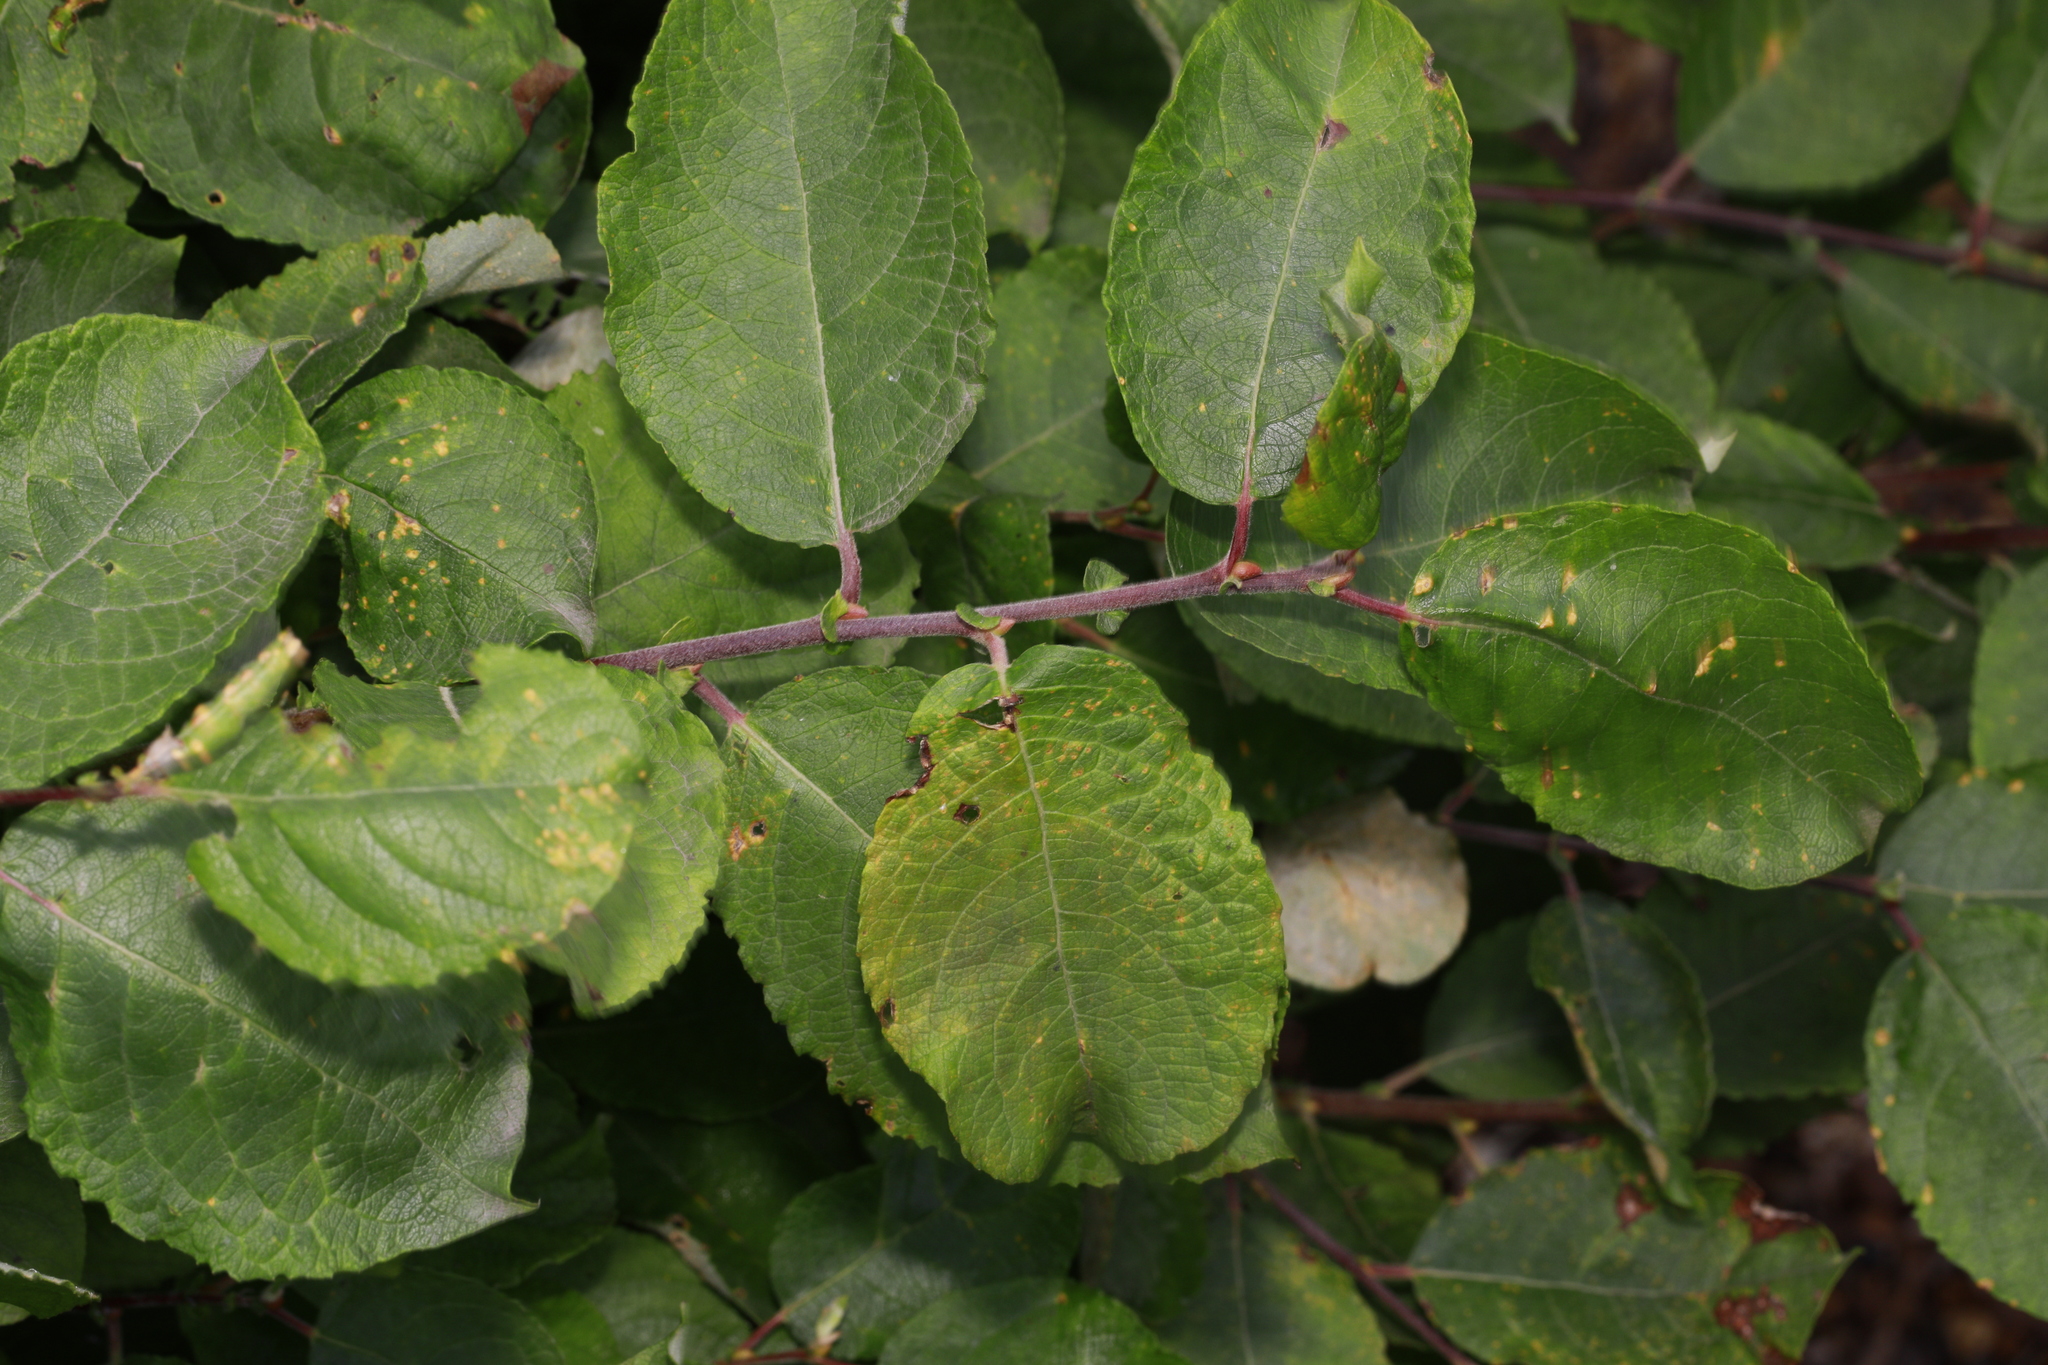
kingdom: Plantae
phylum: Tracheophyta
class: Magnoliopsida
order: Malpighiales
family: Salicaceae
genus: Salix
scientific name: Salix caprea
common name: Goat willow
